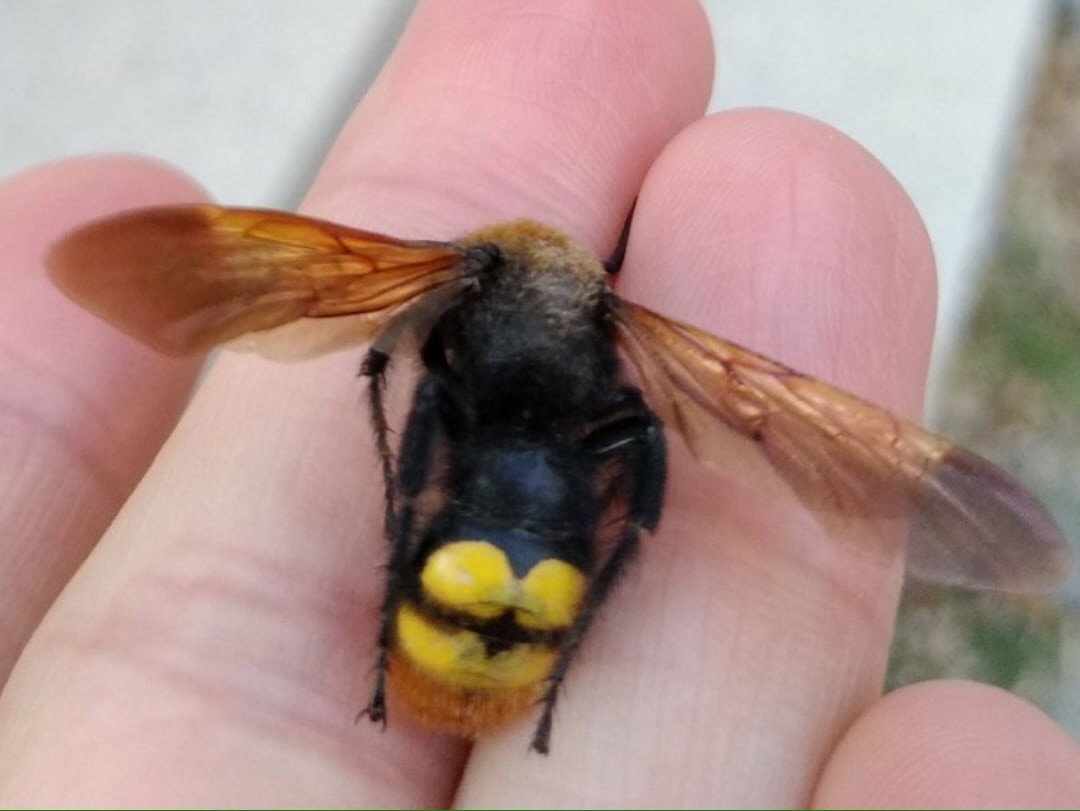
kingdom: Animalia
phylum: Arthropoda
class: Insecta
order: Hymenoptera
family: Scoliidae
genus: Megascolia
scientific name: Megascolia maculata
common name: Mammoth wasp
